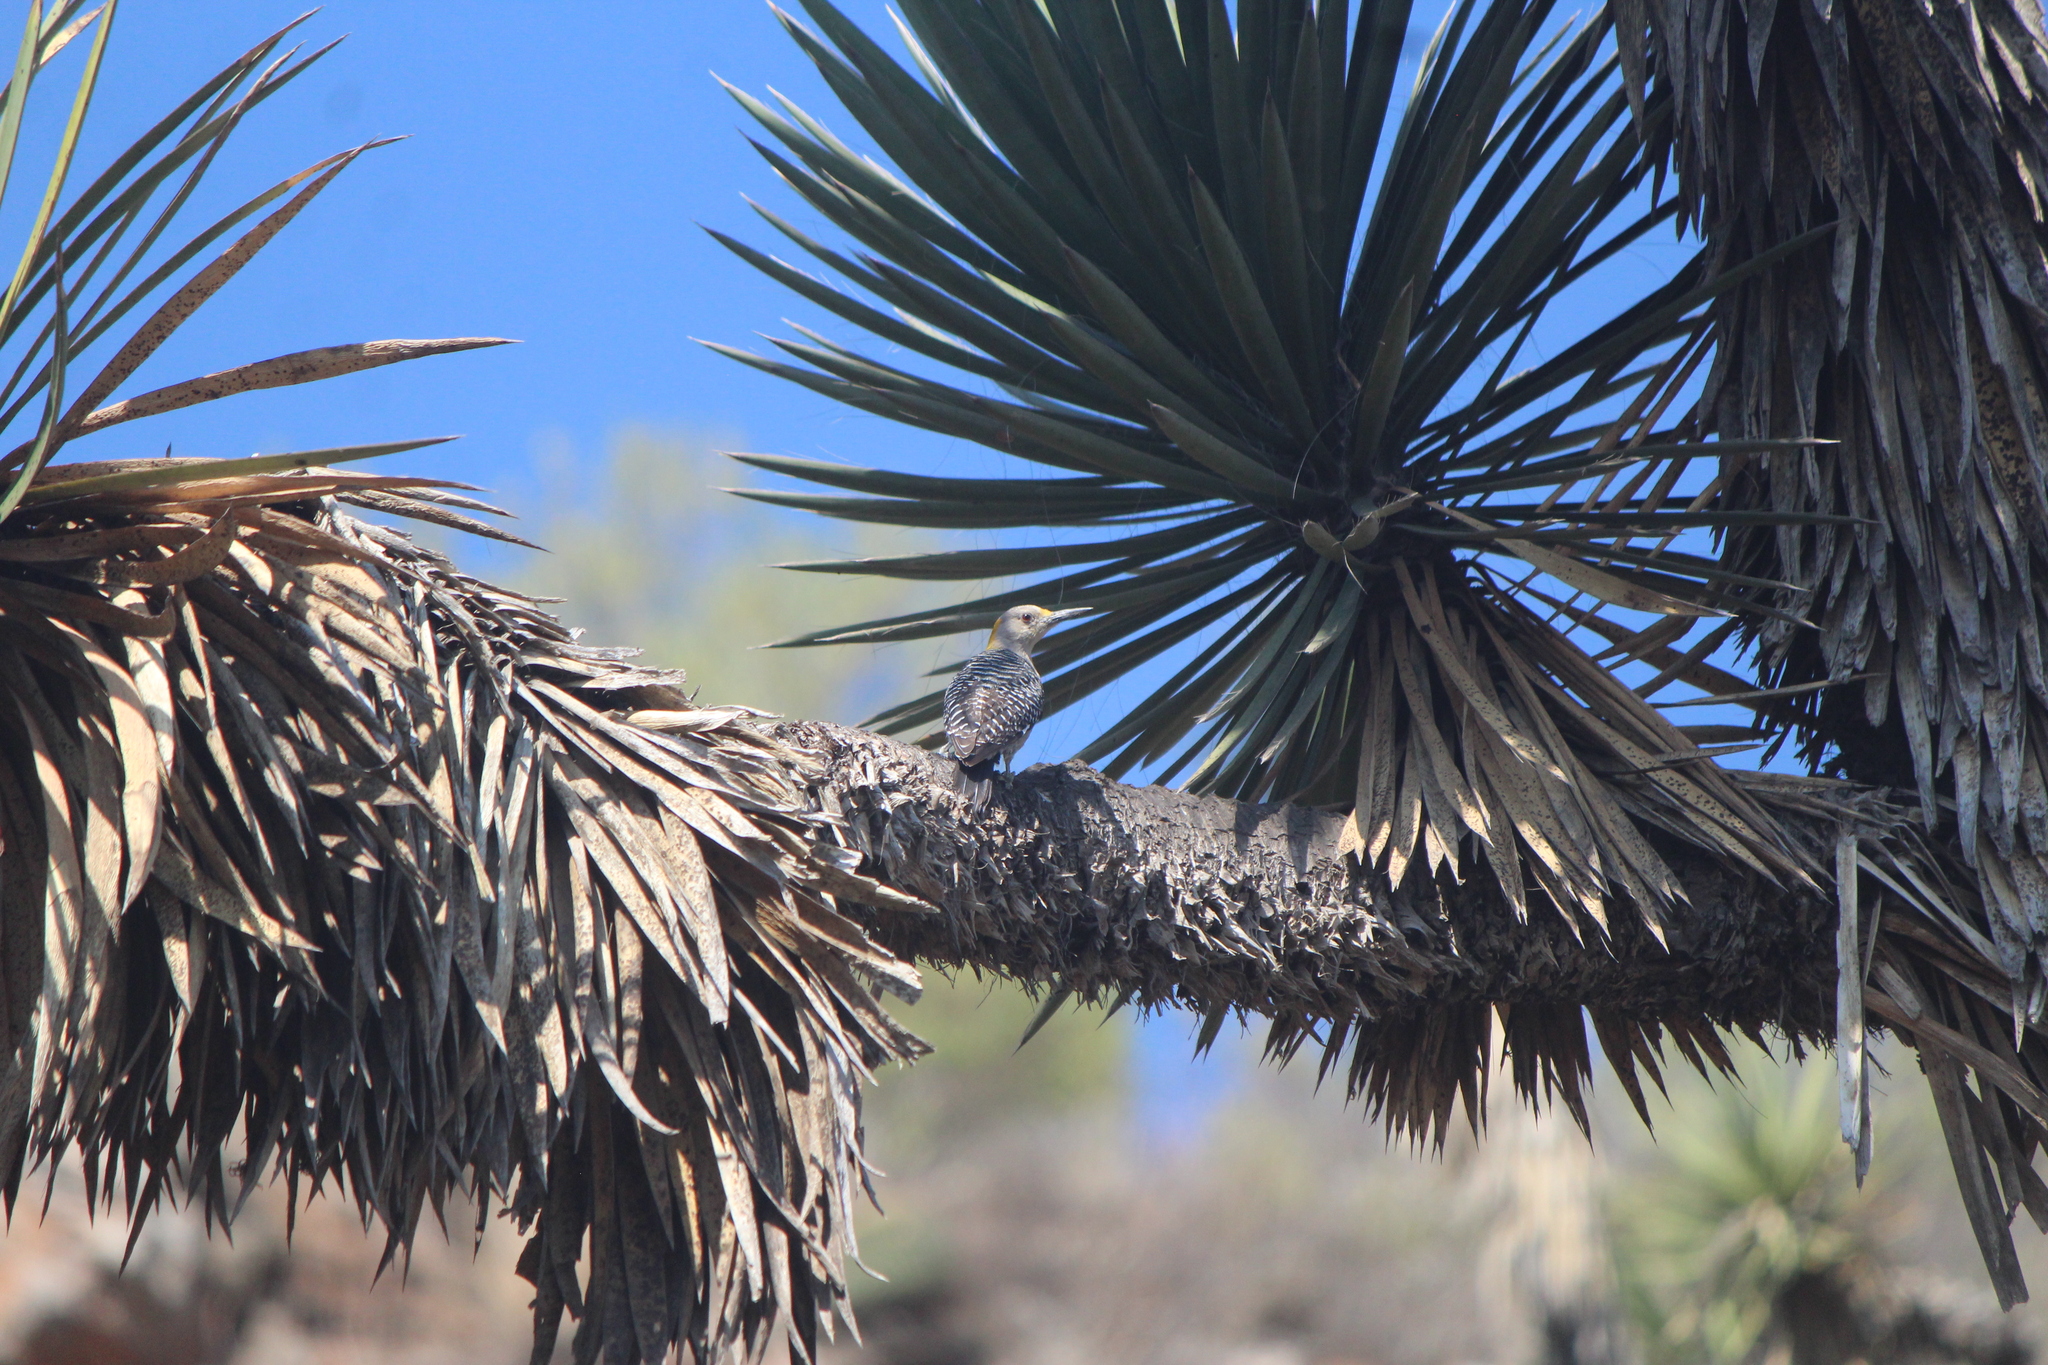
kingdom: Animalia
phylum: Chordata
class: Aves
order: Piciformes
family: Picidae
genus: Melanerpes
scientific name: Melanerpes aurifrons
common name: Golden-fronted woodpecker
